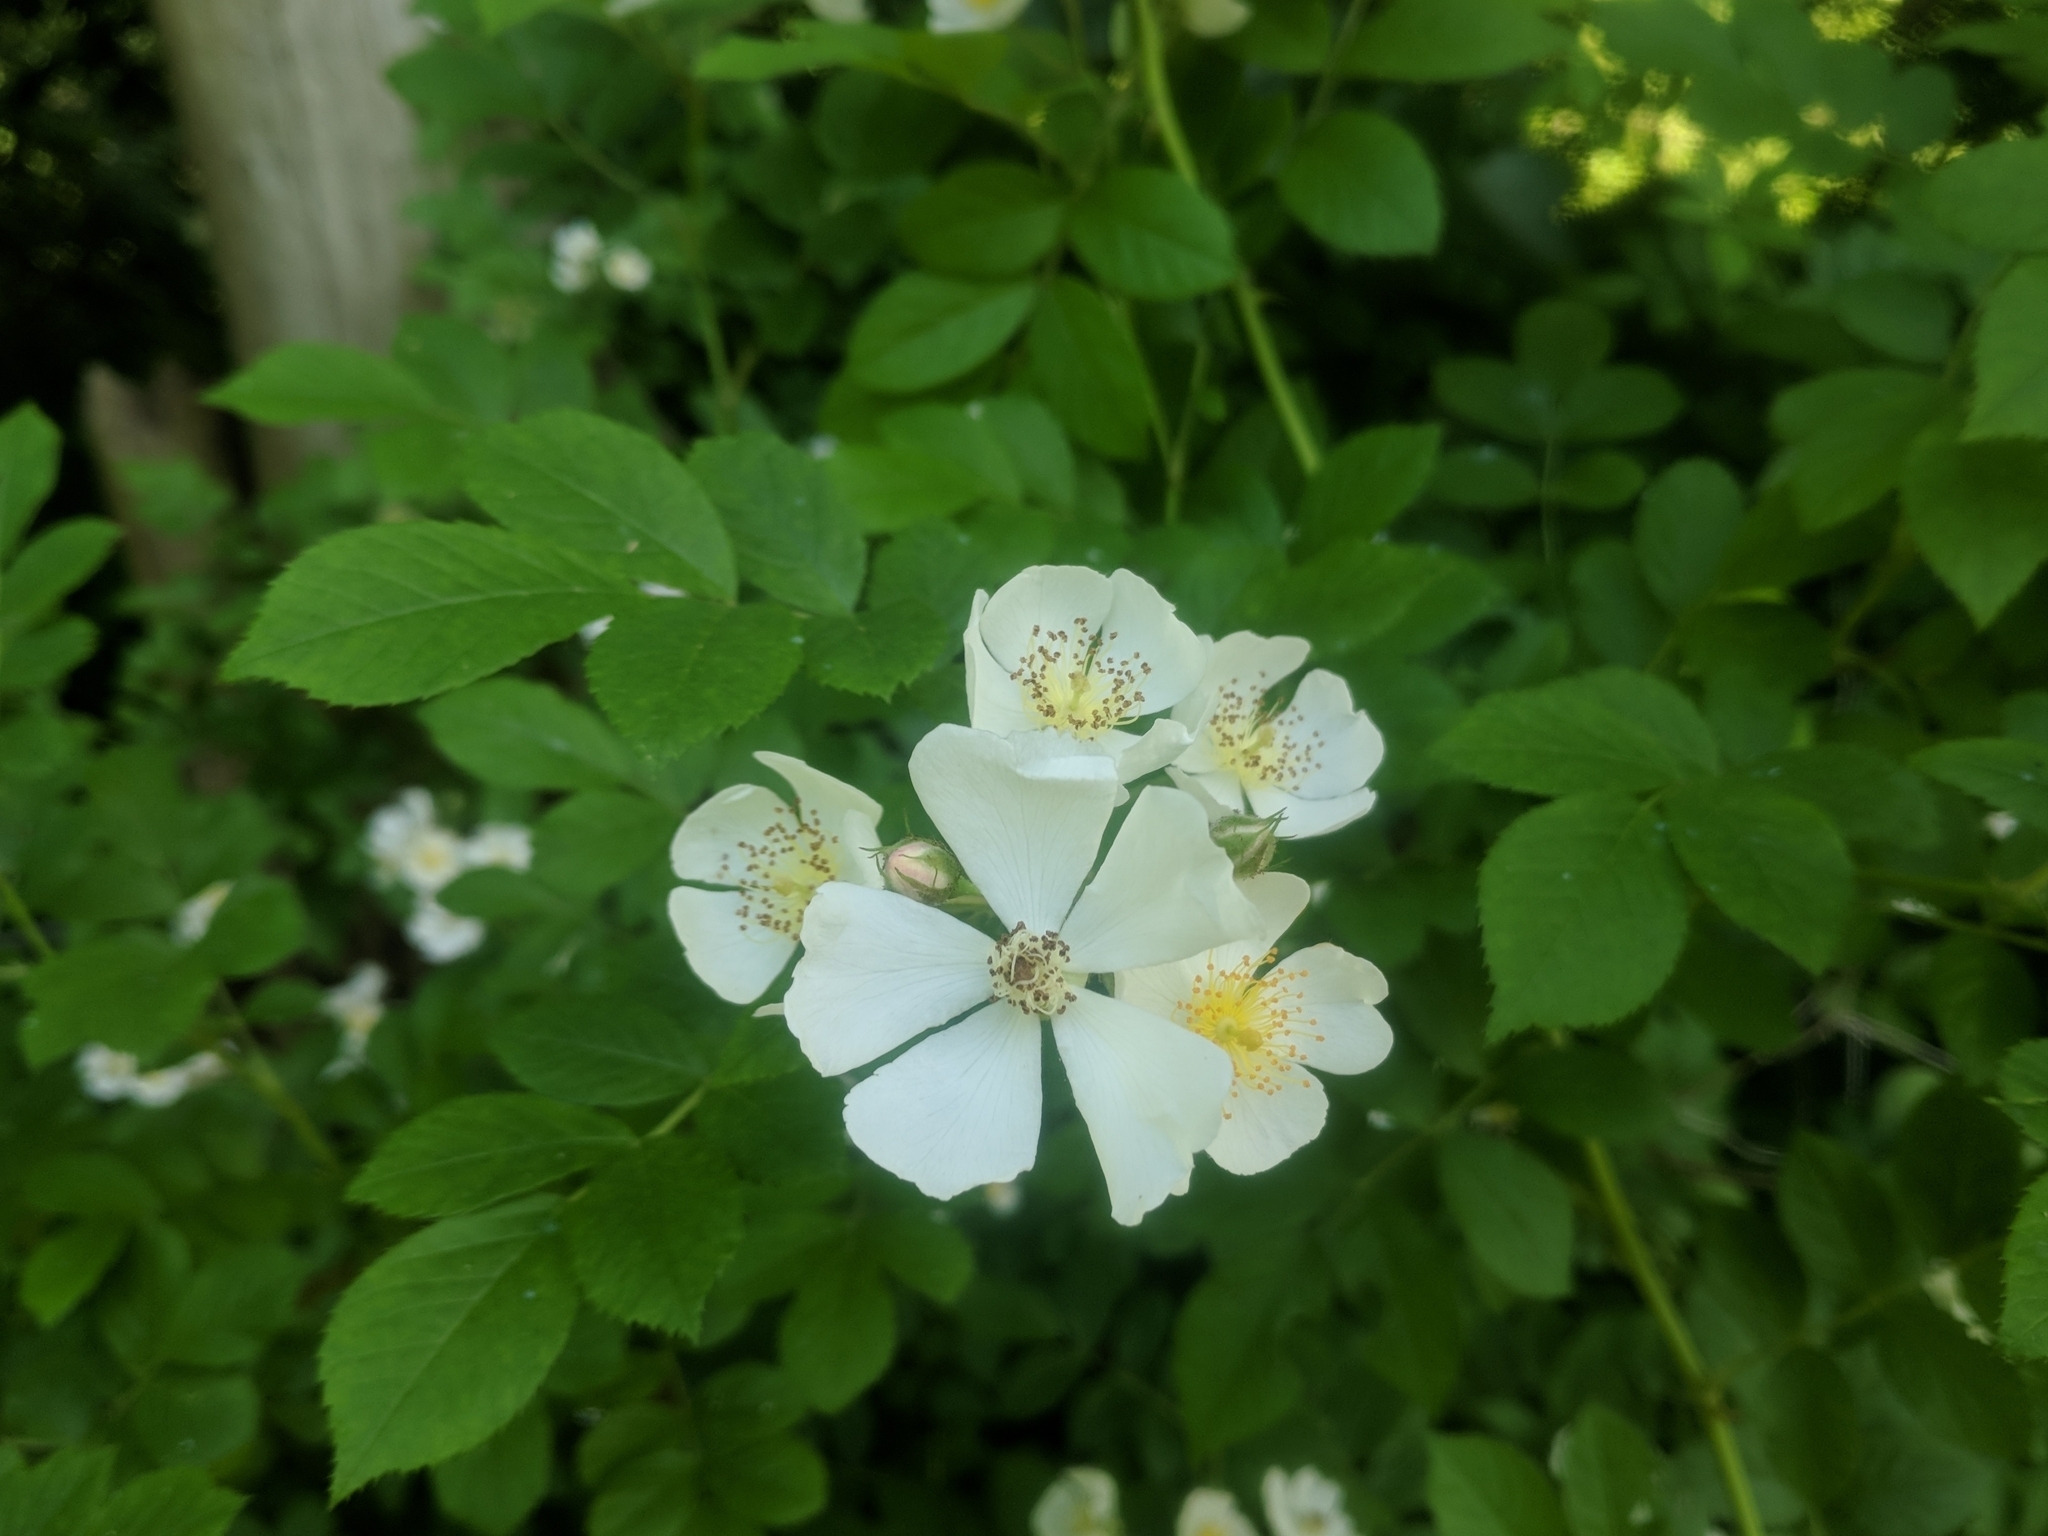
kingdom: Plantae
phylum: Tracheophyta
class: Magnoliopsida
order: Rosales
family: Rosaceae
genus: Rosa
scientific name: Rosa multiflora
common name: Multiflora rose
